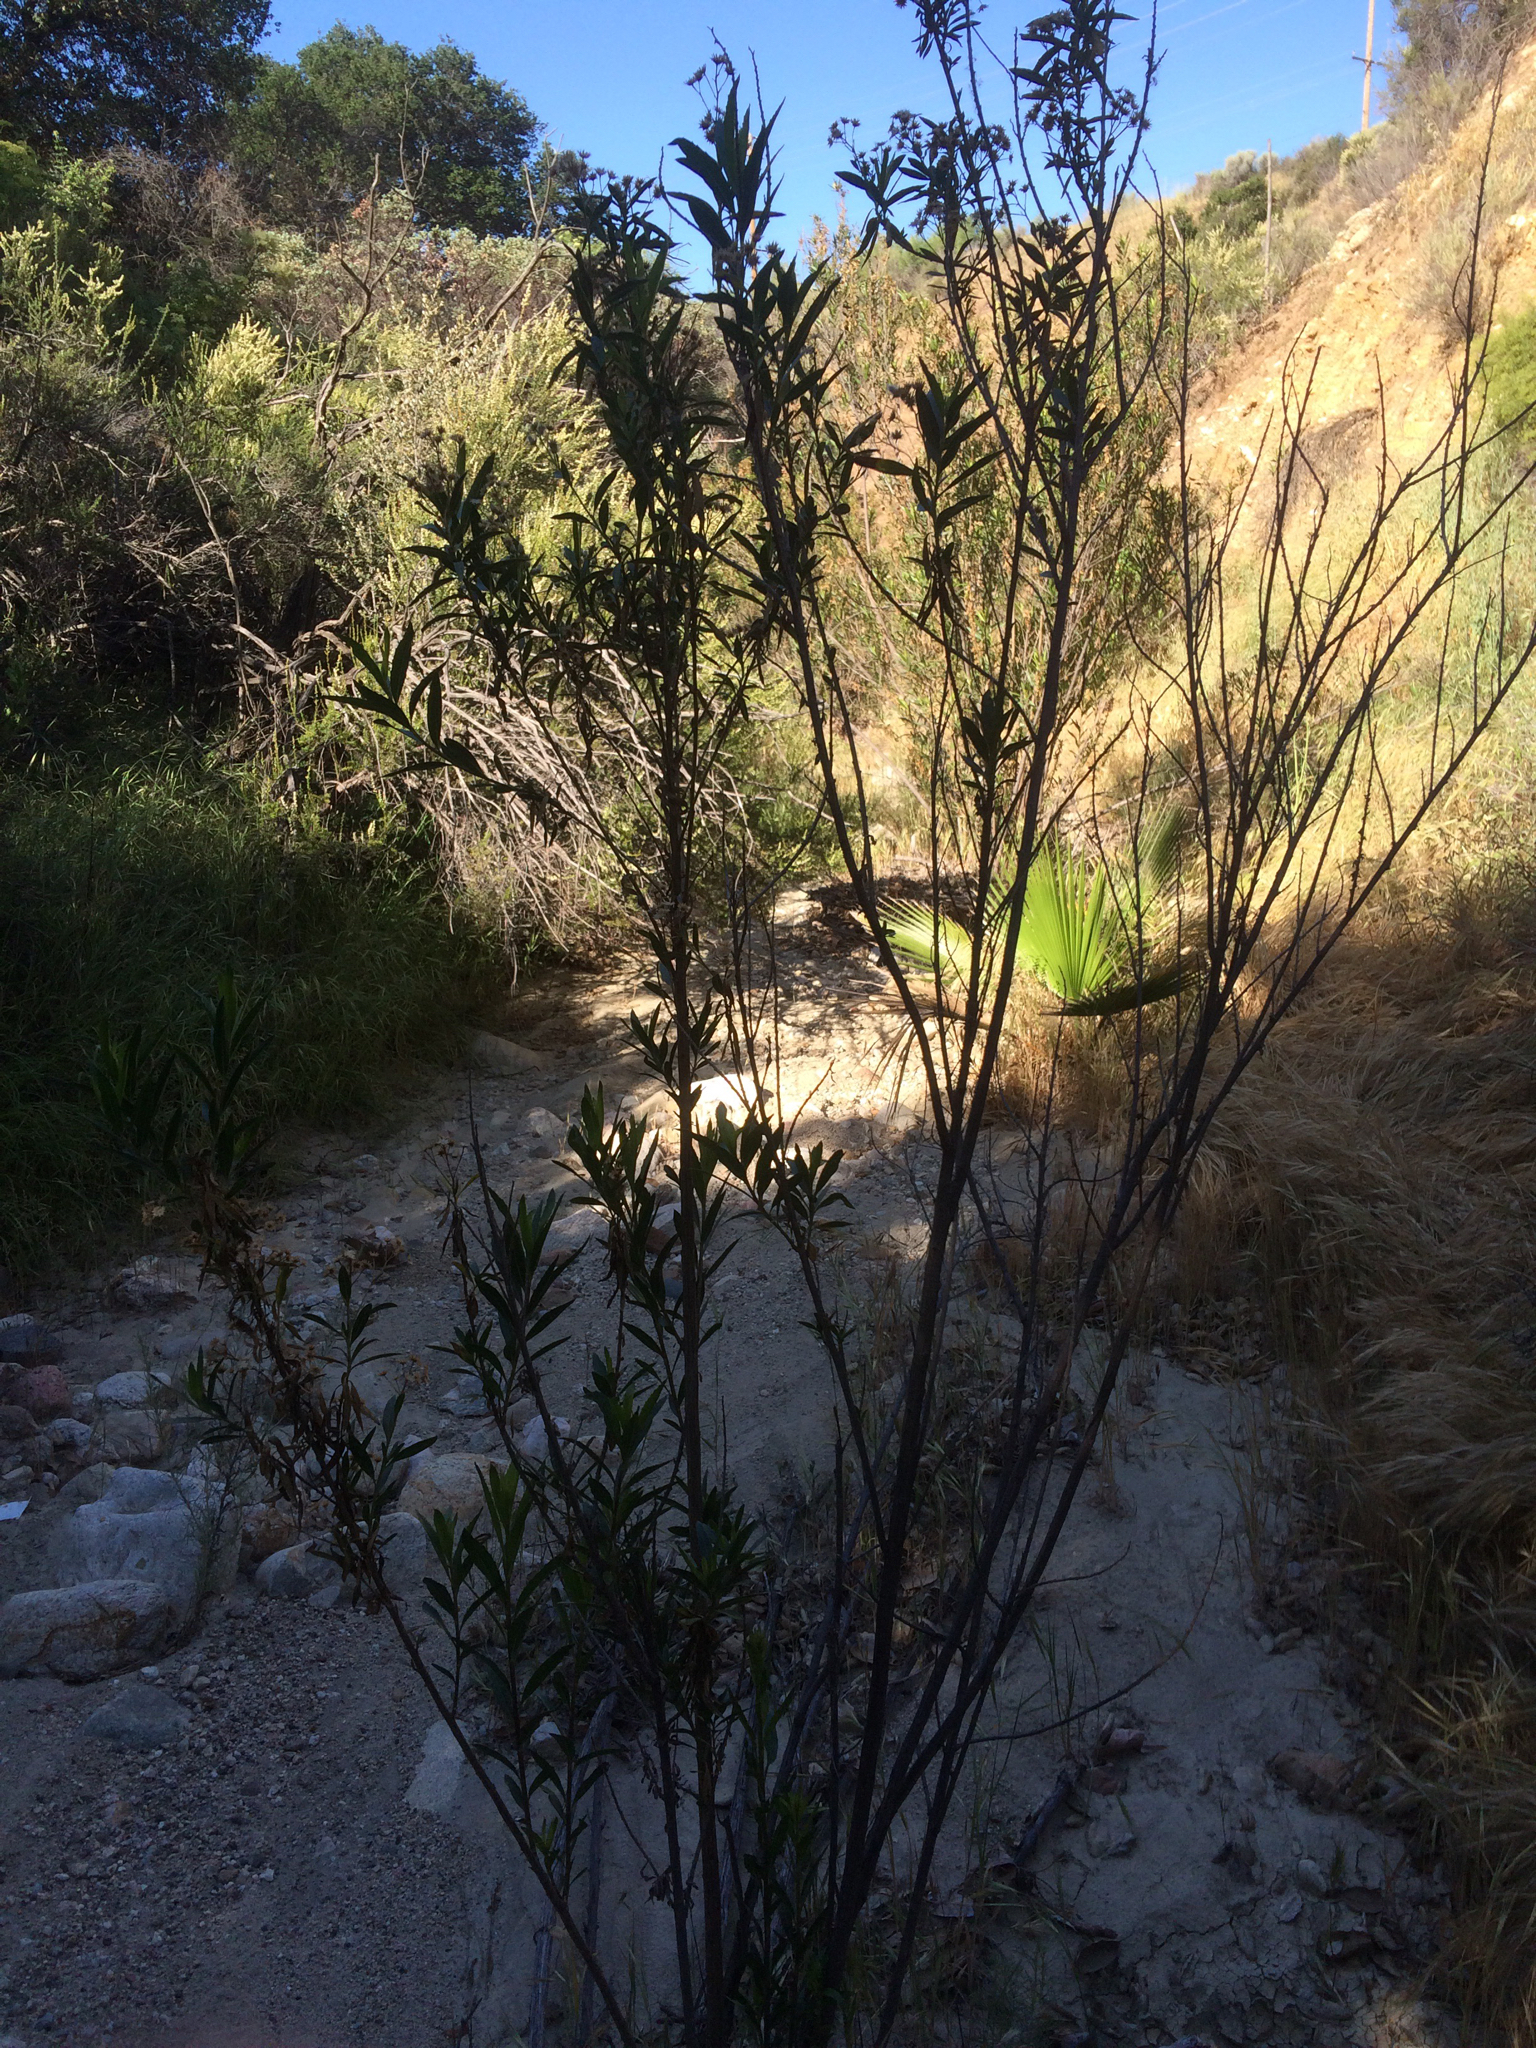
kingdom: Plantae
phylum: Tracheophyta
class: Magnoliopsida
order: Asterales
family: Asteraceae
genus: Baccharis
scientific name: Baccharis salicifolia
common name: Sticky baccharis
